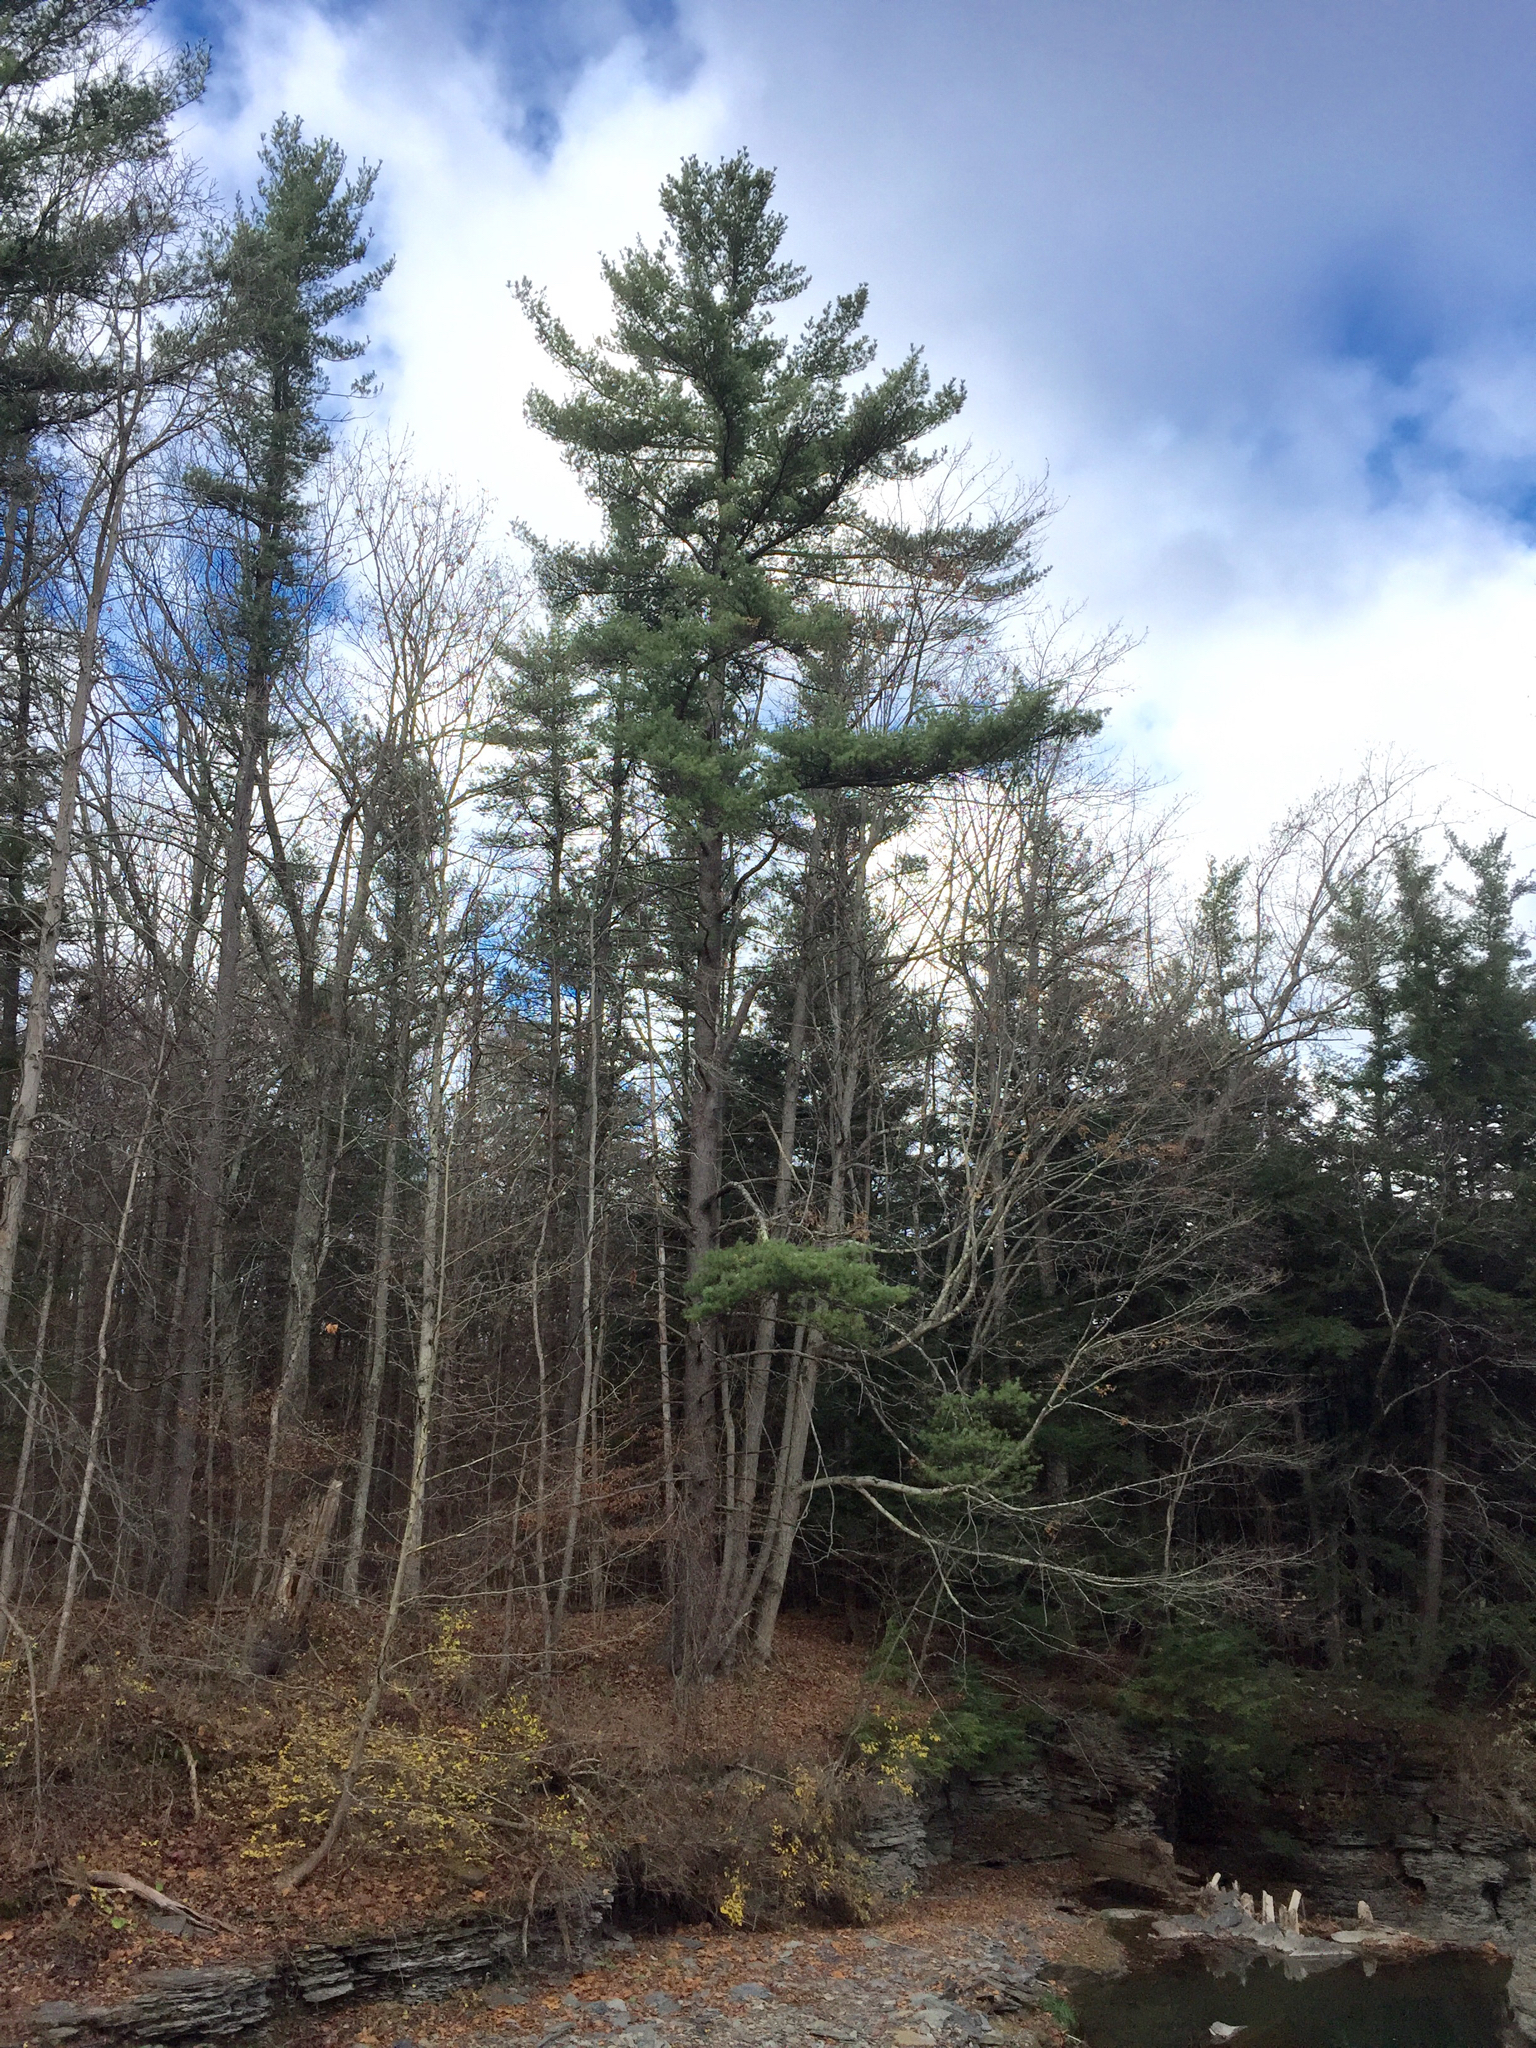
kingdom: Plantae
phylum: Tracheophyta
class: Pinopsida
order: Pinales
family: Pinaceae
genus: Pinus
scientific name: Pinus strobus
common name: Weymouth pine
